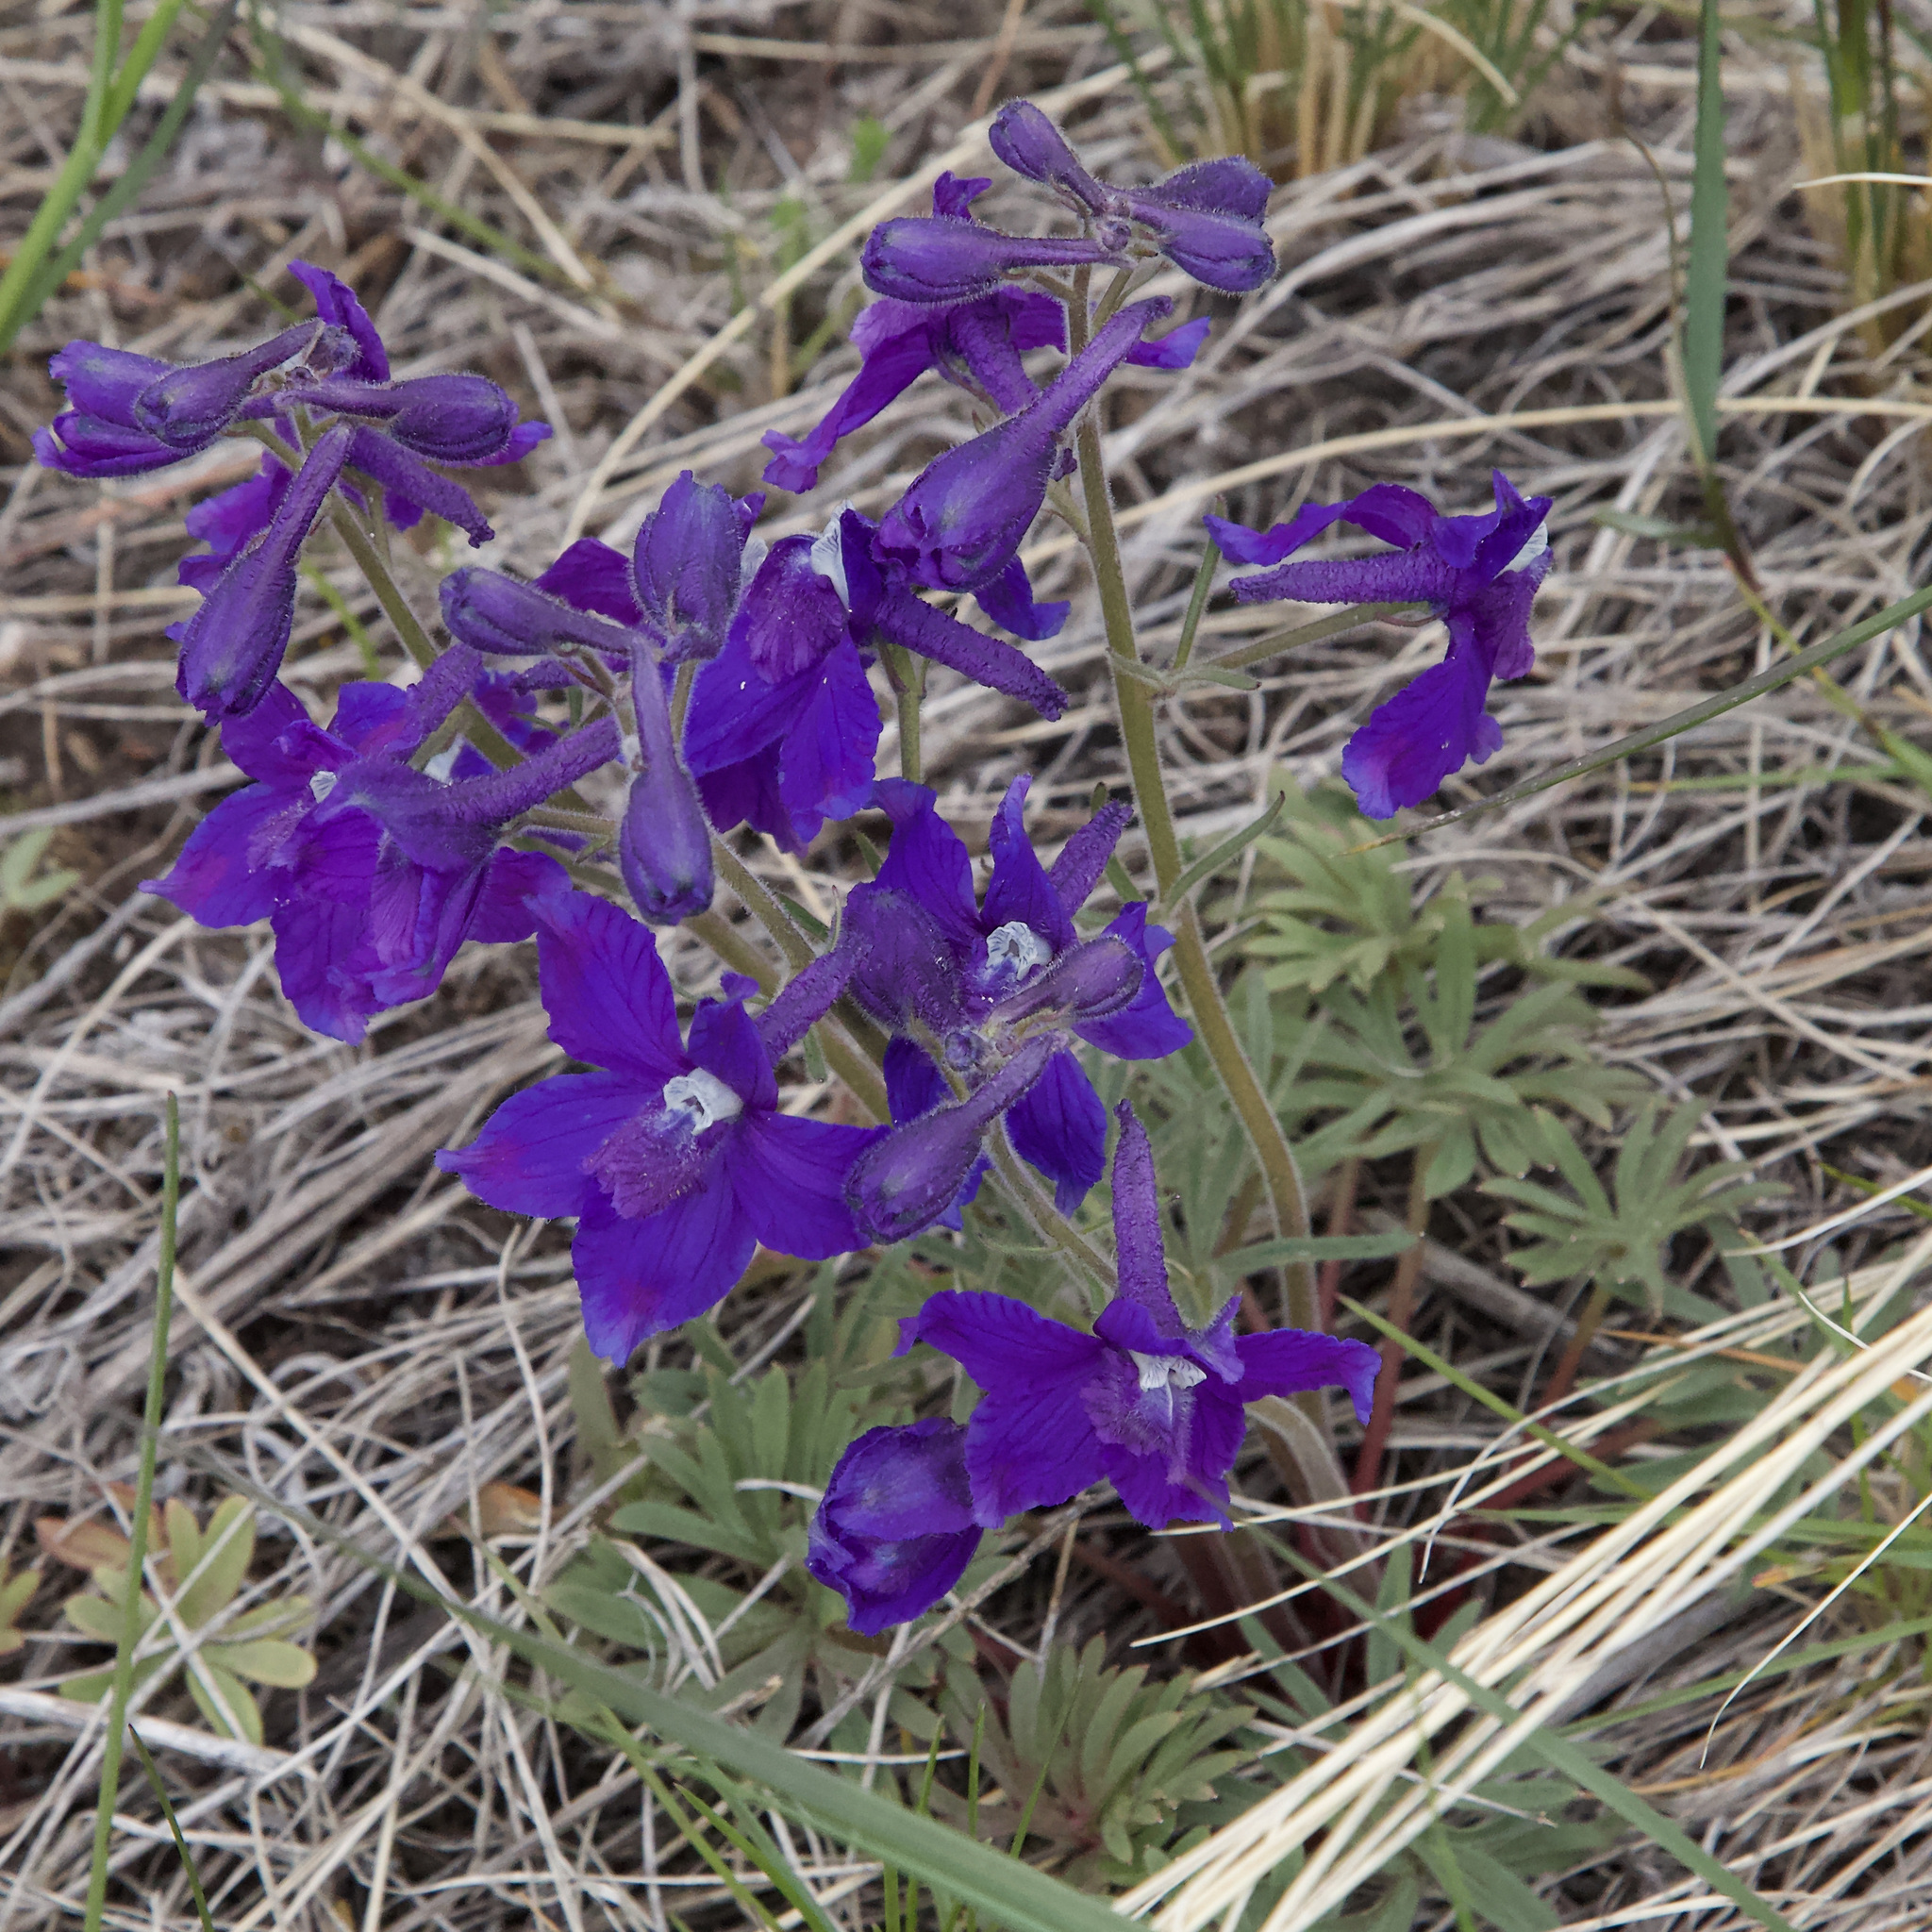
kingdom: Plantae
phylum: Tracheophyta
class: Magnoliopsida
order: Ranunculales
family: Ranunculaceae
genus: Delphinium
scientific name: Delphinium bicolor
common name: Low larkspur
